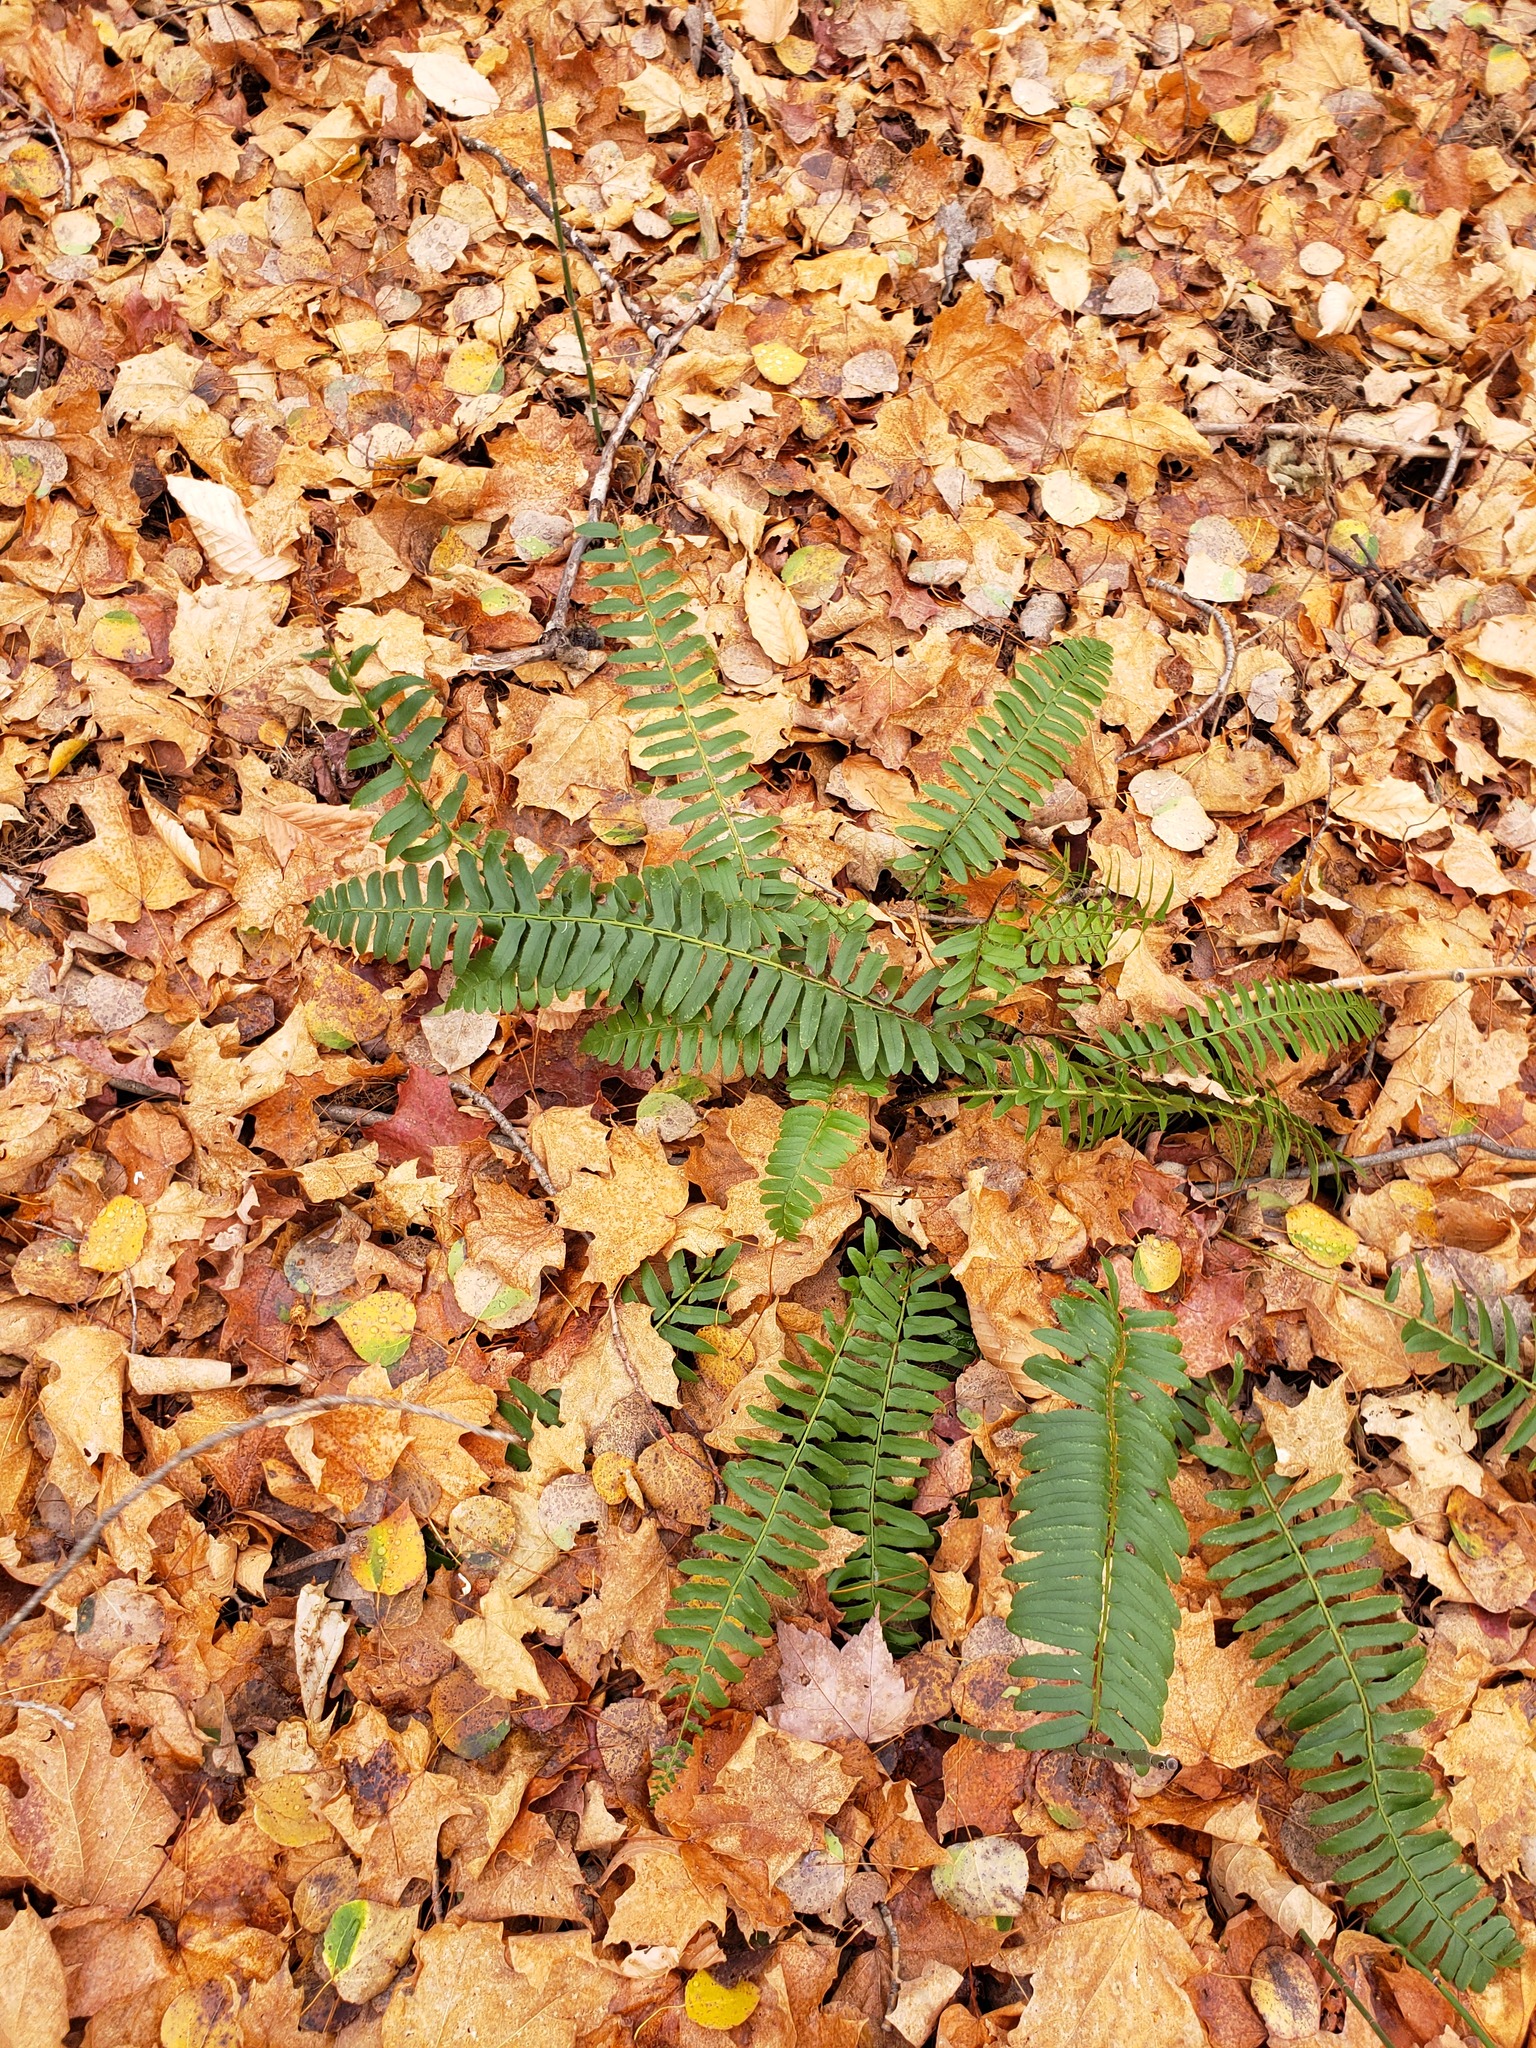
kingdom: Plantae
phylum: Tracheophyta
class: Polypodiopsida
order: Polypodiales
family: Dryopteridaceae
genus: Polystichum
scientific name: Polystichum acrostichoides
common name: Christmas fern
